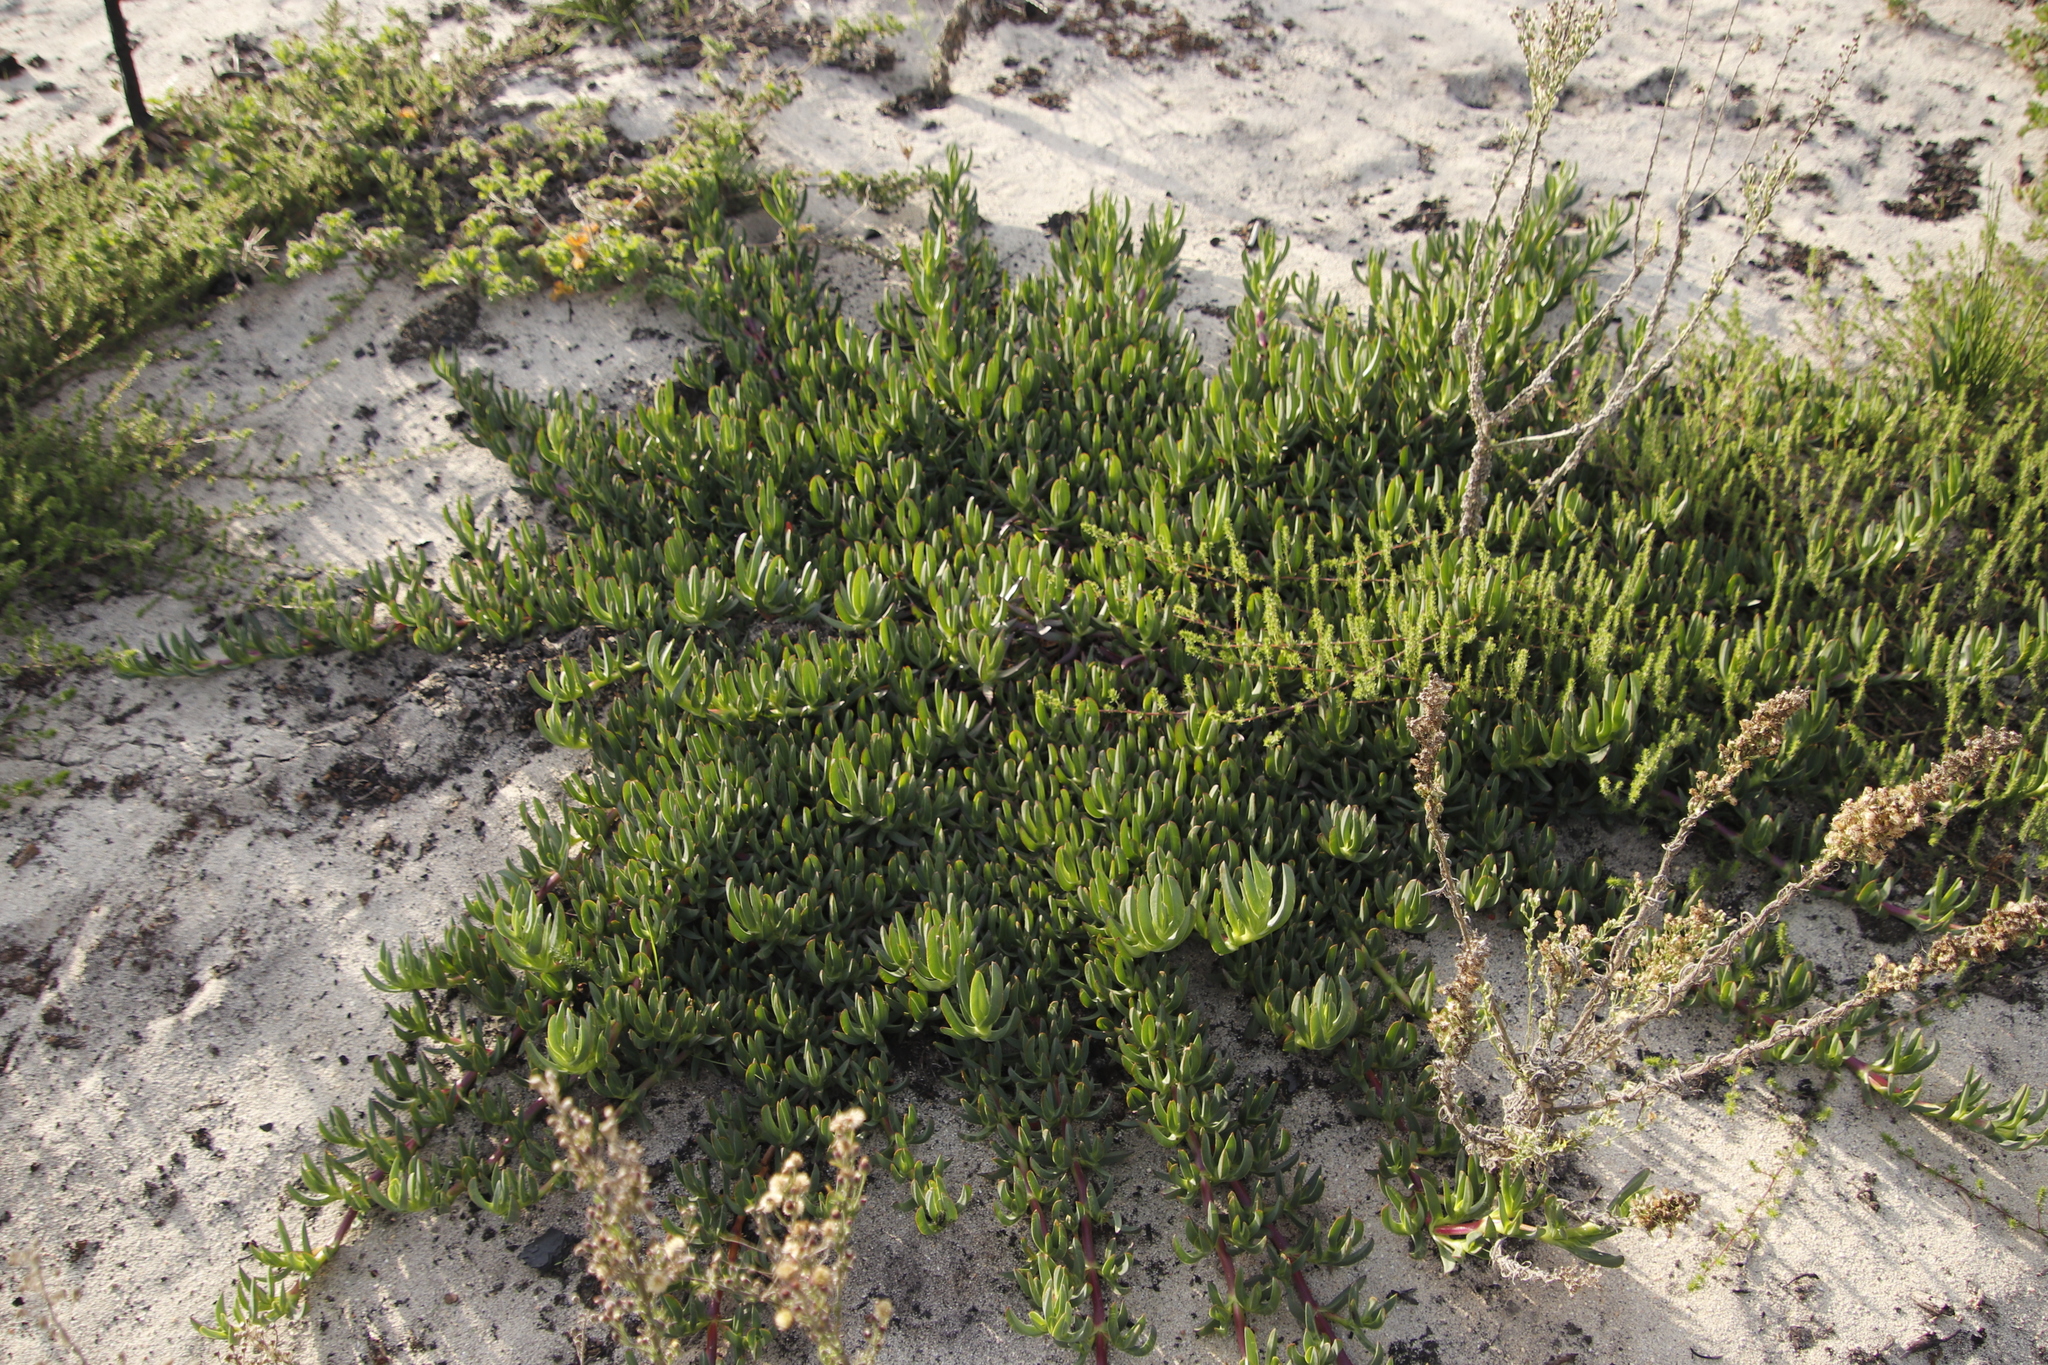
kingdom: Plantae
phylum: Tracheophyta
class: Magnoliopsida
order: Caryophyllales
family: Aizoaceae
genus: Carpobrotus
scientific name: Carpobrotus edulis
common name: Hottentot-fig
